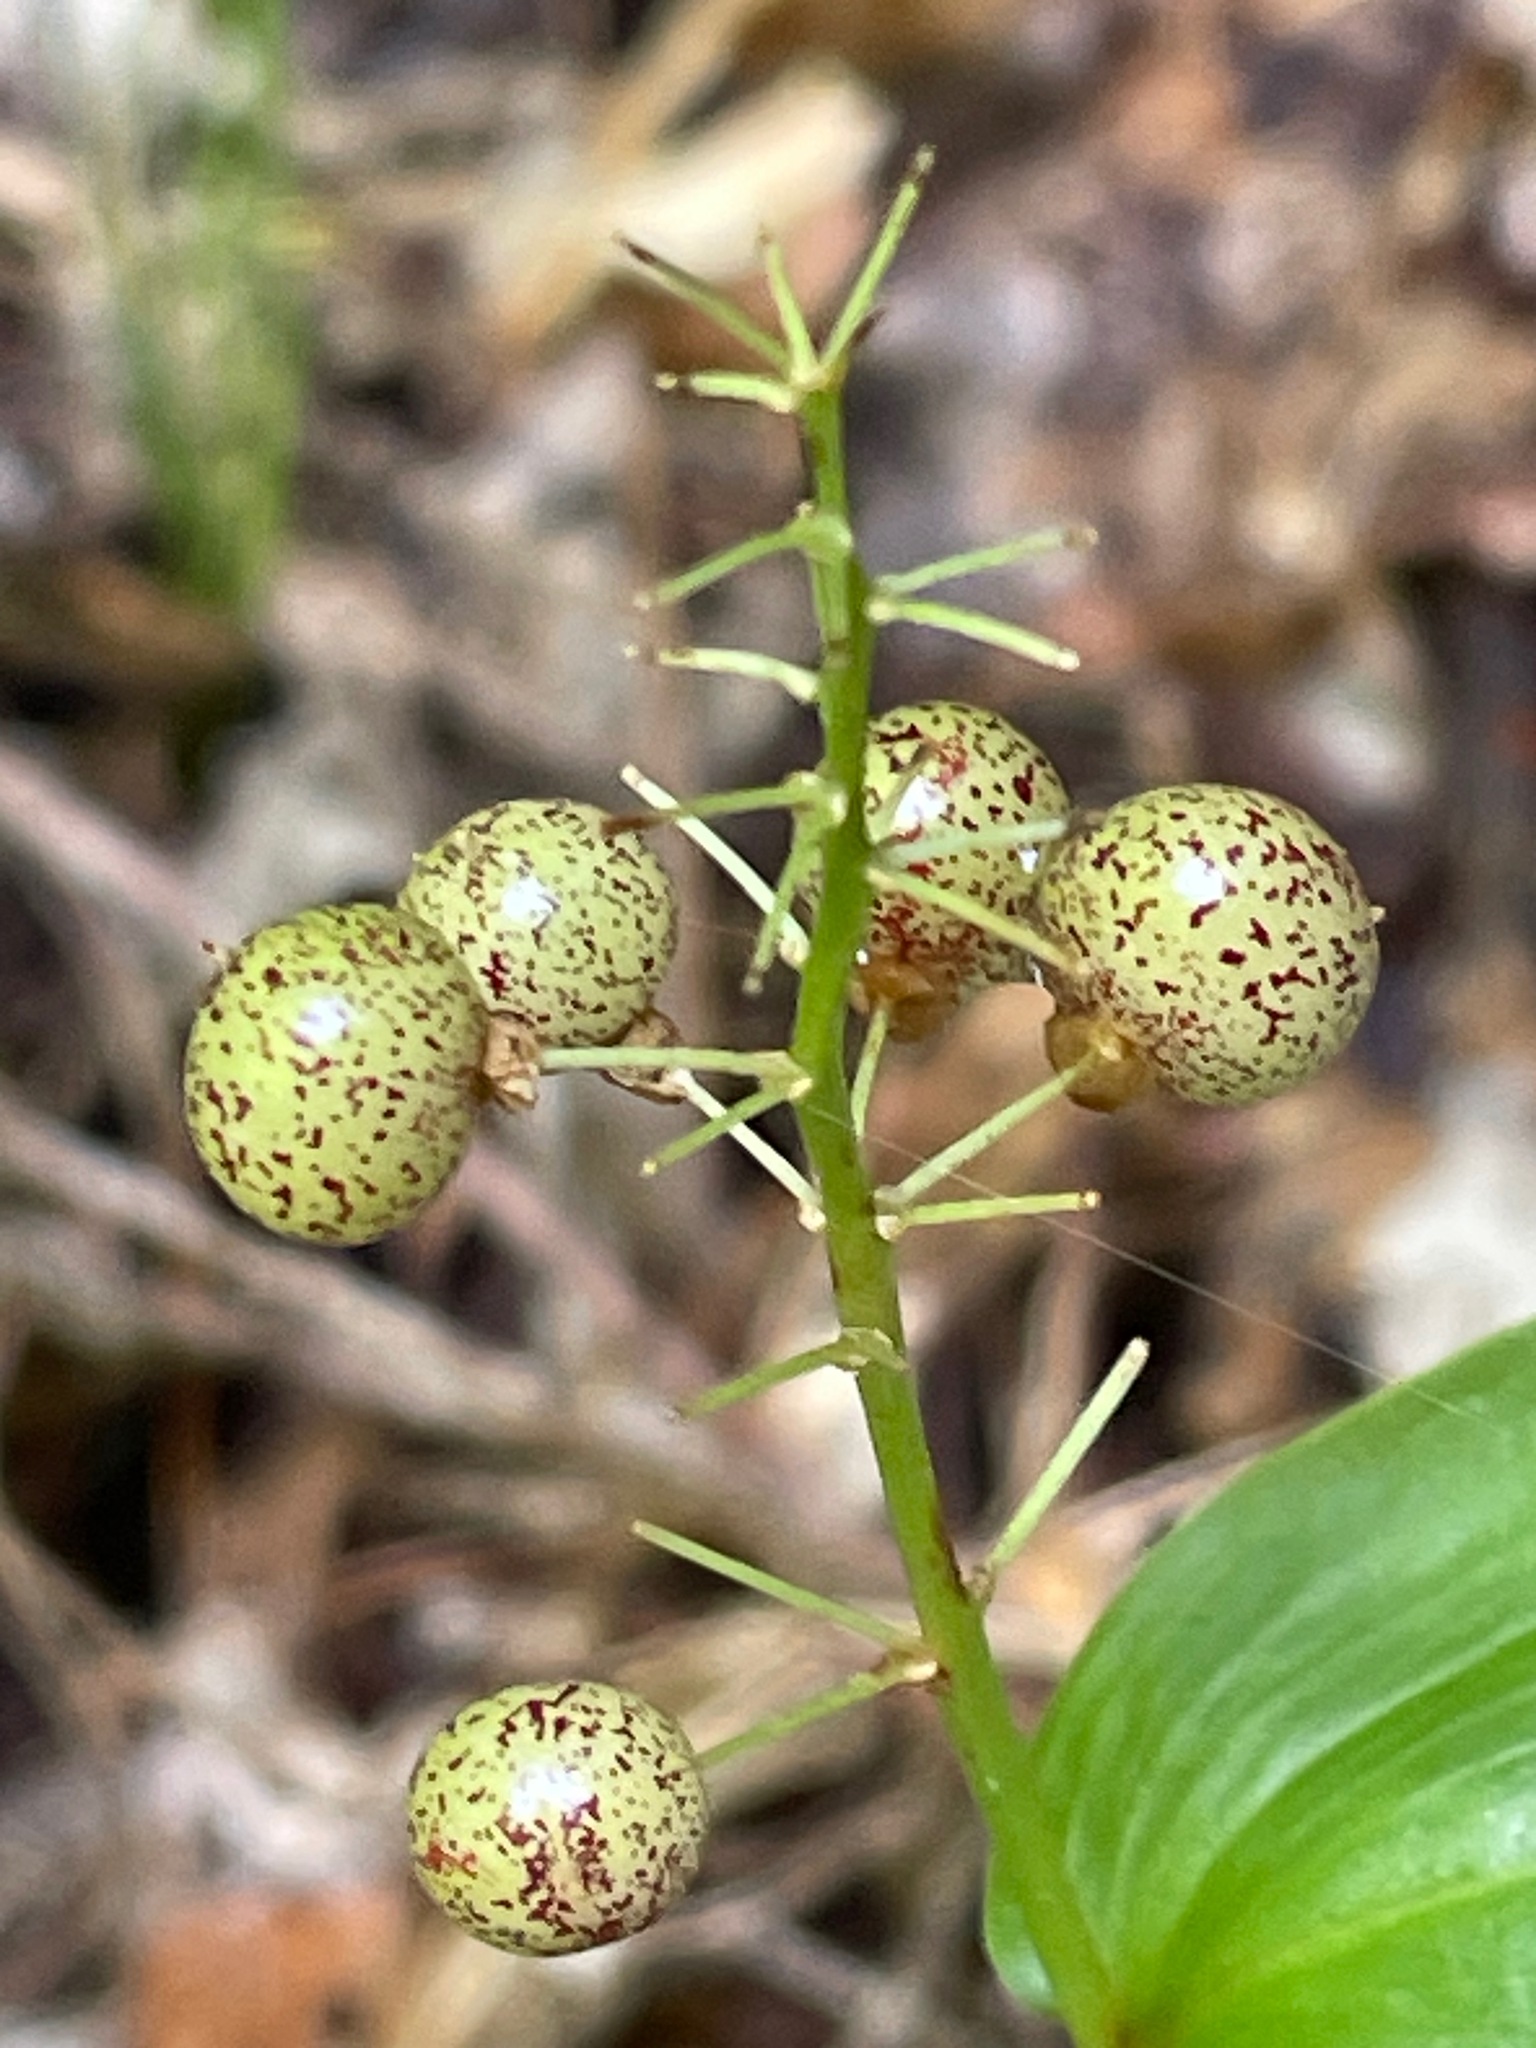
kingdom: Plantae
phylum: Tracheophyta
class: Liliopsida
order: Asparagales
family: Asparagaceae
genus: Maianthemum
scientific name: Maianthemum canadense
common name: False lily-of-the-valley
